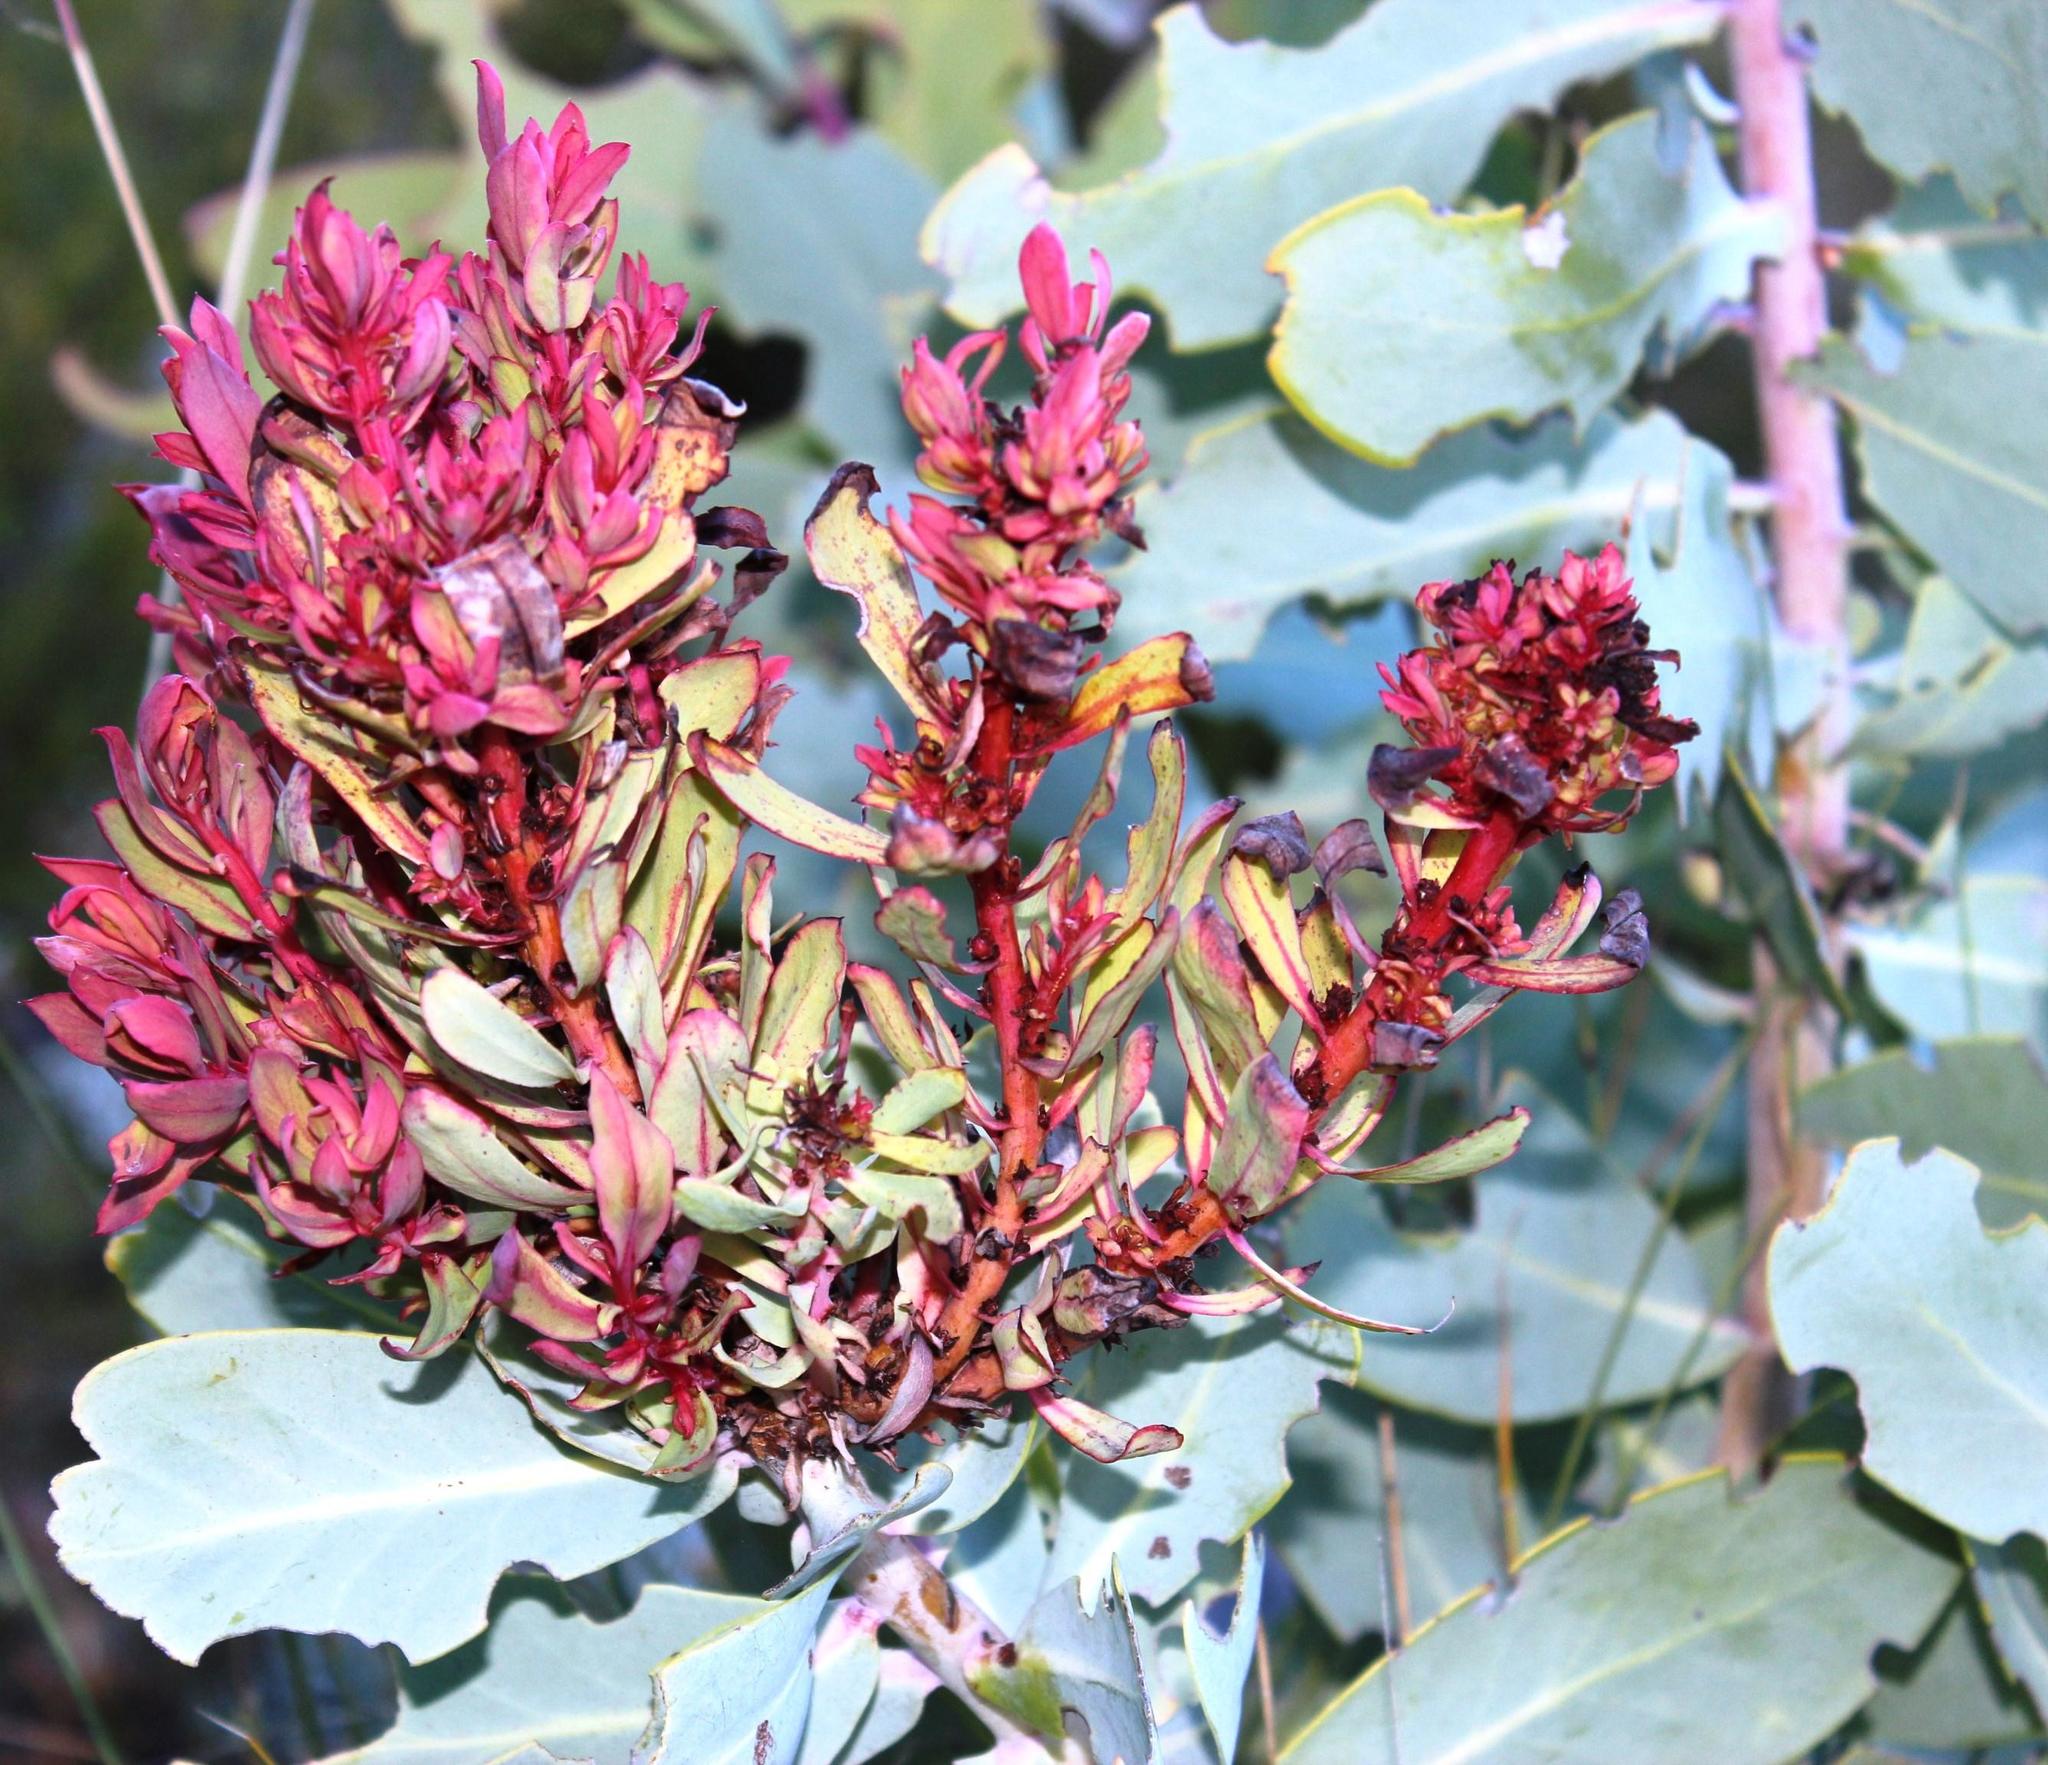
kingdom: Bacteria
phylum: Firmicutes
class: Bacilli
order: Acholeplasmatales
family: Acholeplasmataceae
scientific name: Acholeplasmataceae
